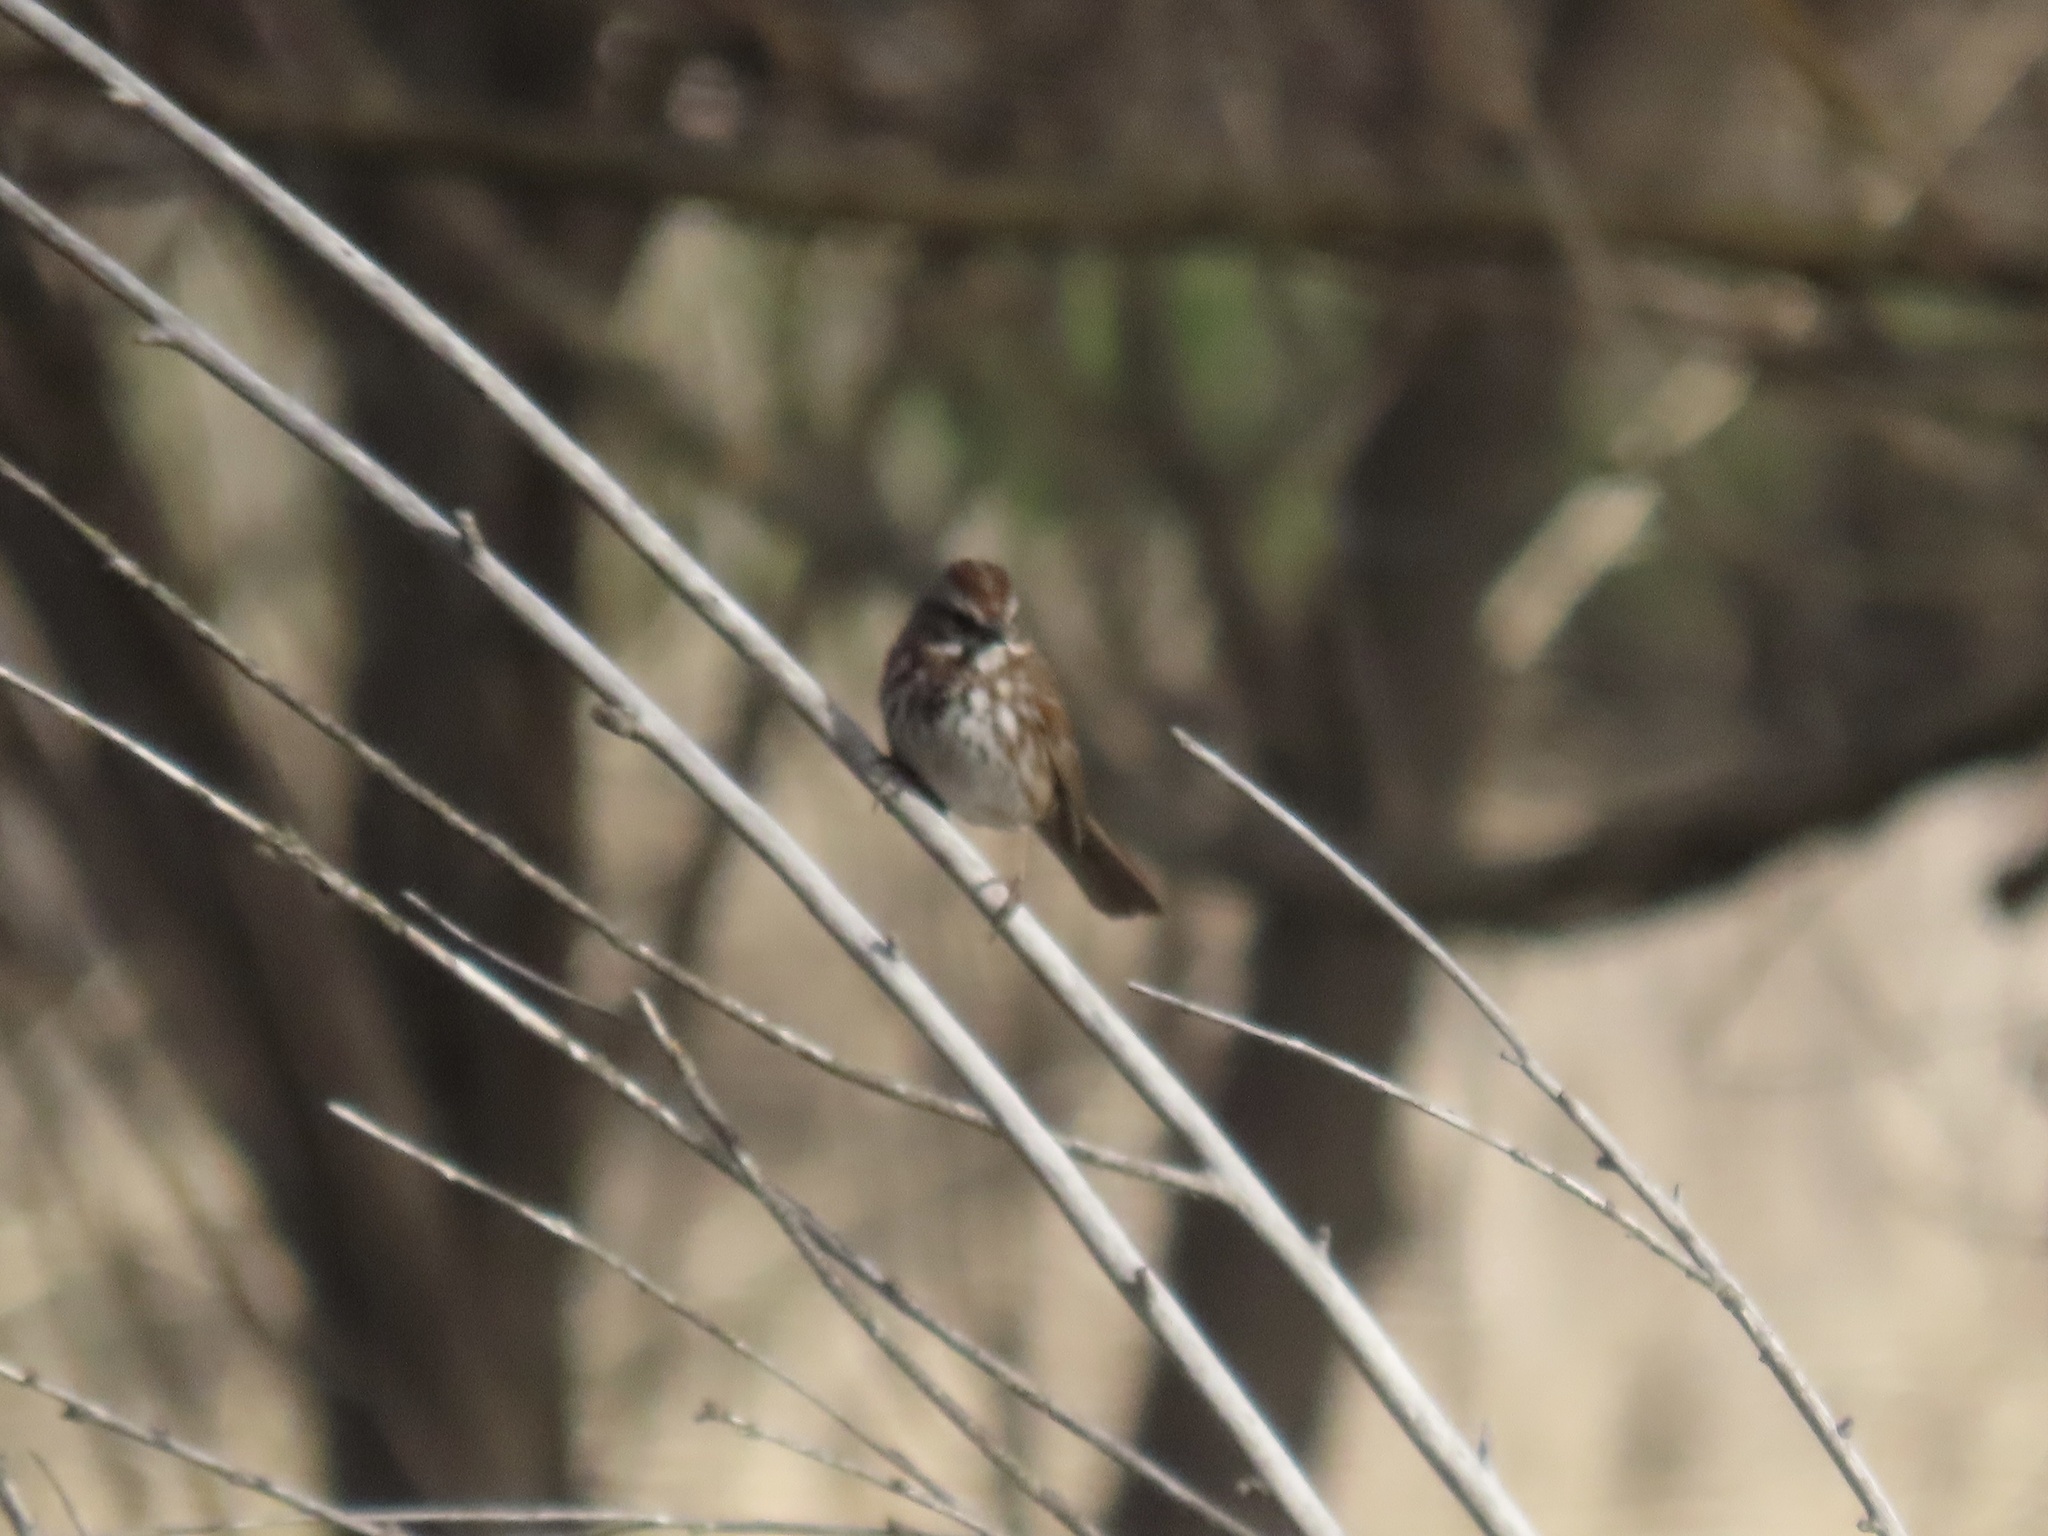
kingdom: Animalia
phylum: Chordata
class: Aves
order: Passeriformes
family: Passerellidae
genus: Melospiza
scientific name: Melospiza melodia
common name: Song sparrow
